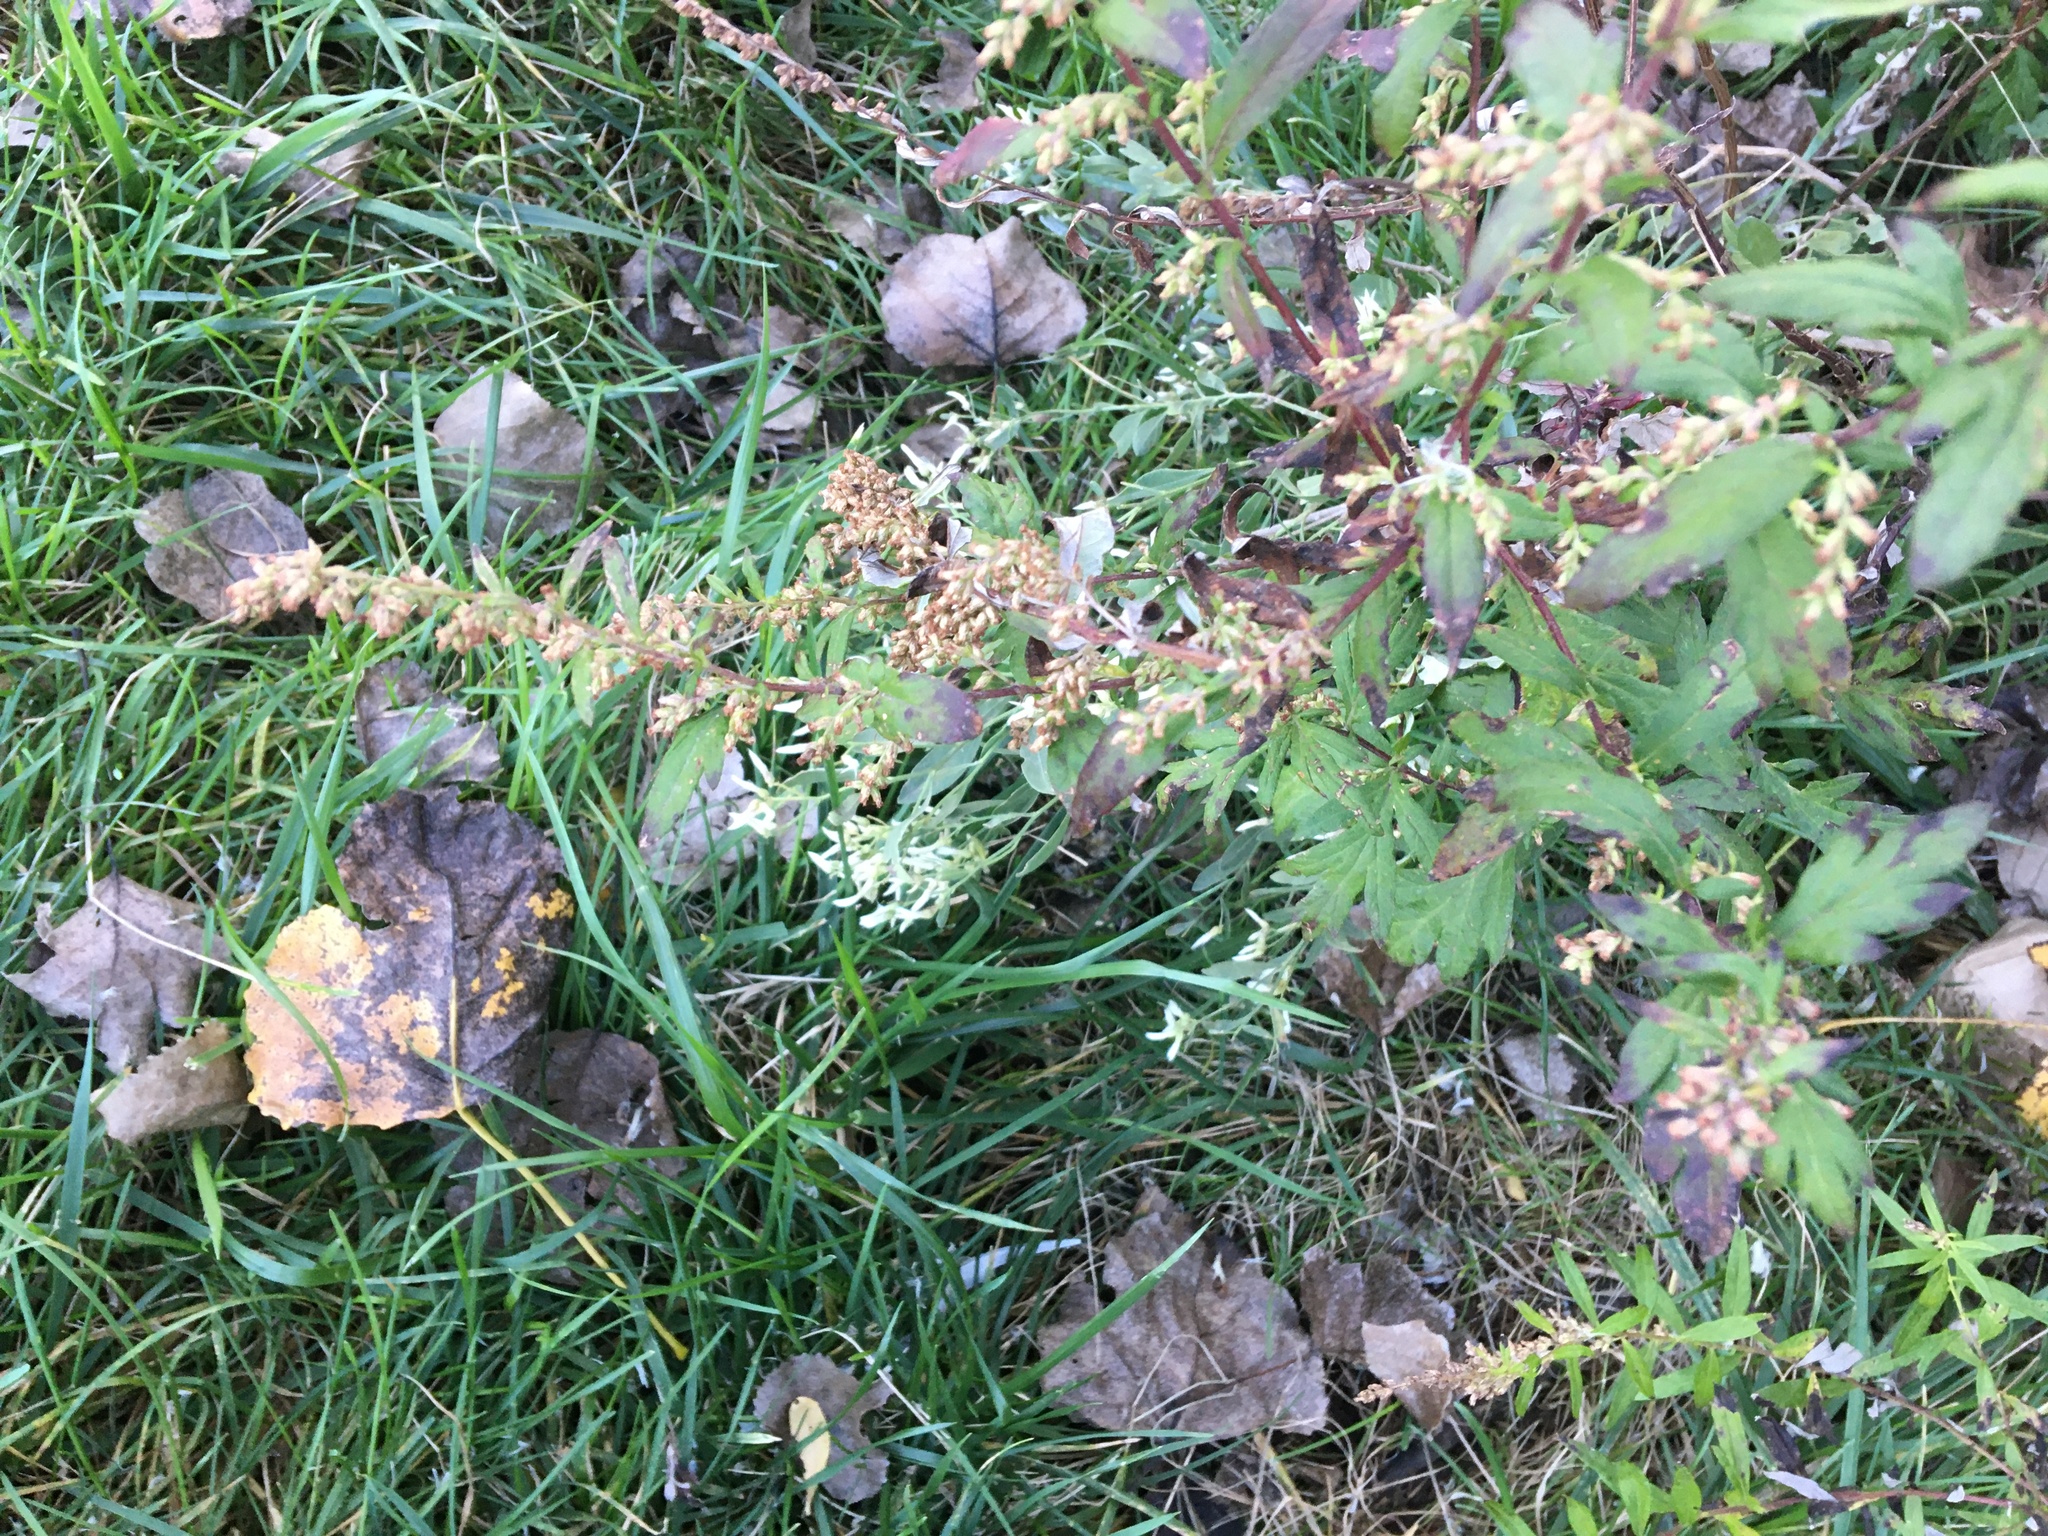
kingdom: Plantae
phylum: Tracheophyta
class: Magnoliopsida
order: Asterales
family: Asteraceae
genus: Artemisia
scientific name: Artemisia vulgaris
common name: Mugwort
